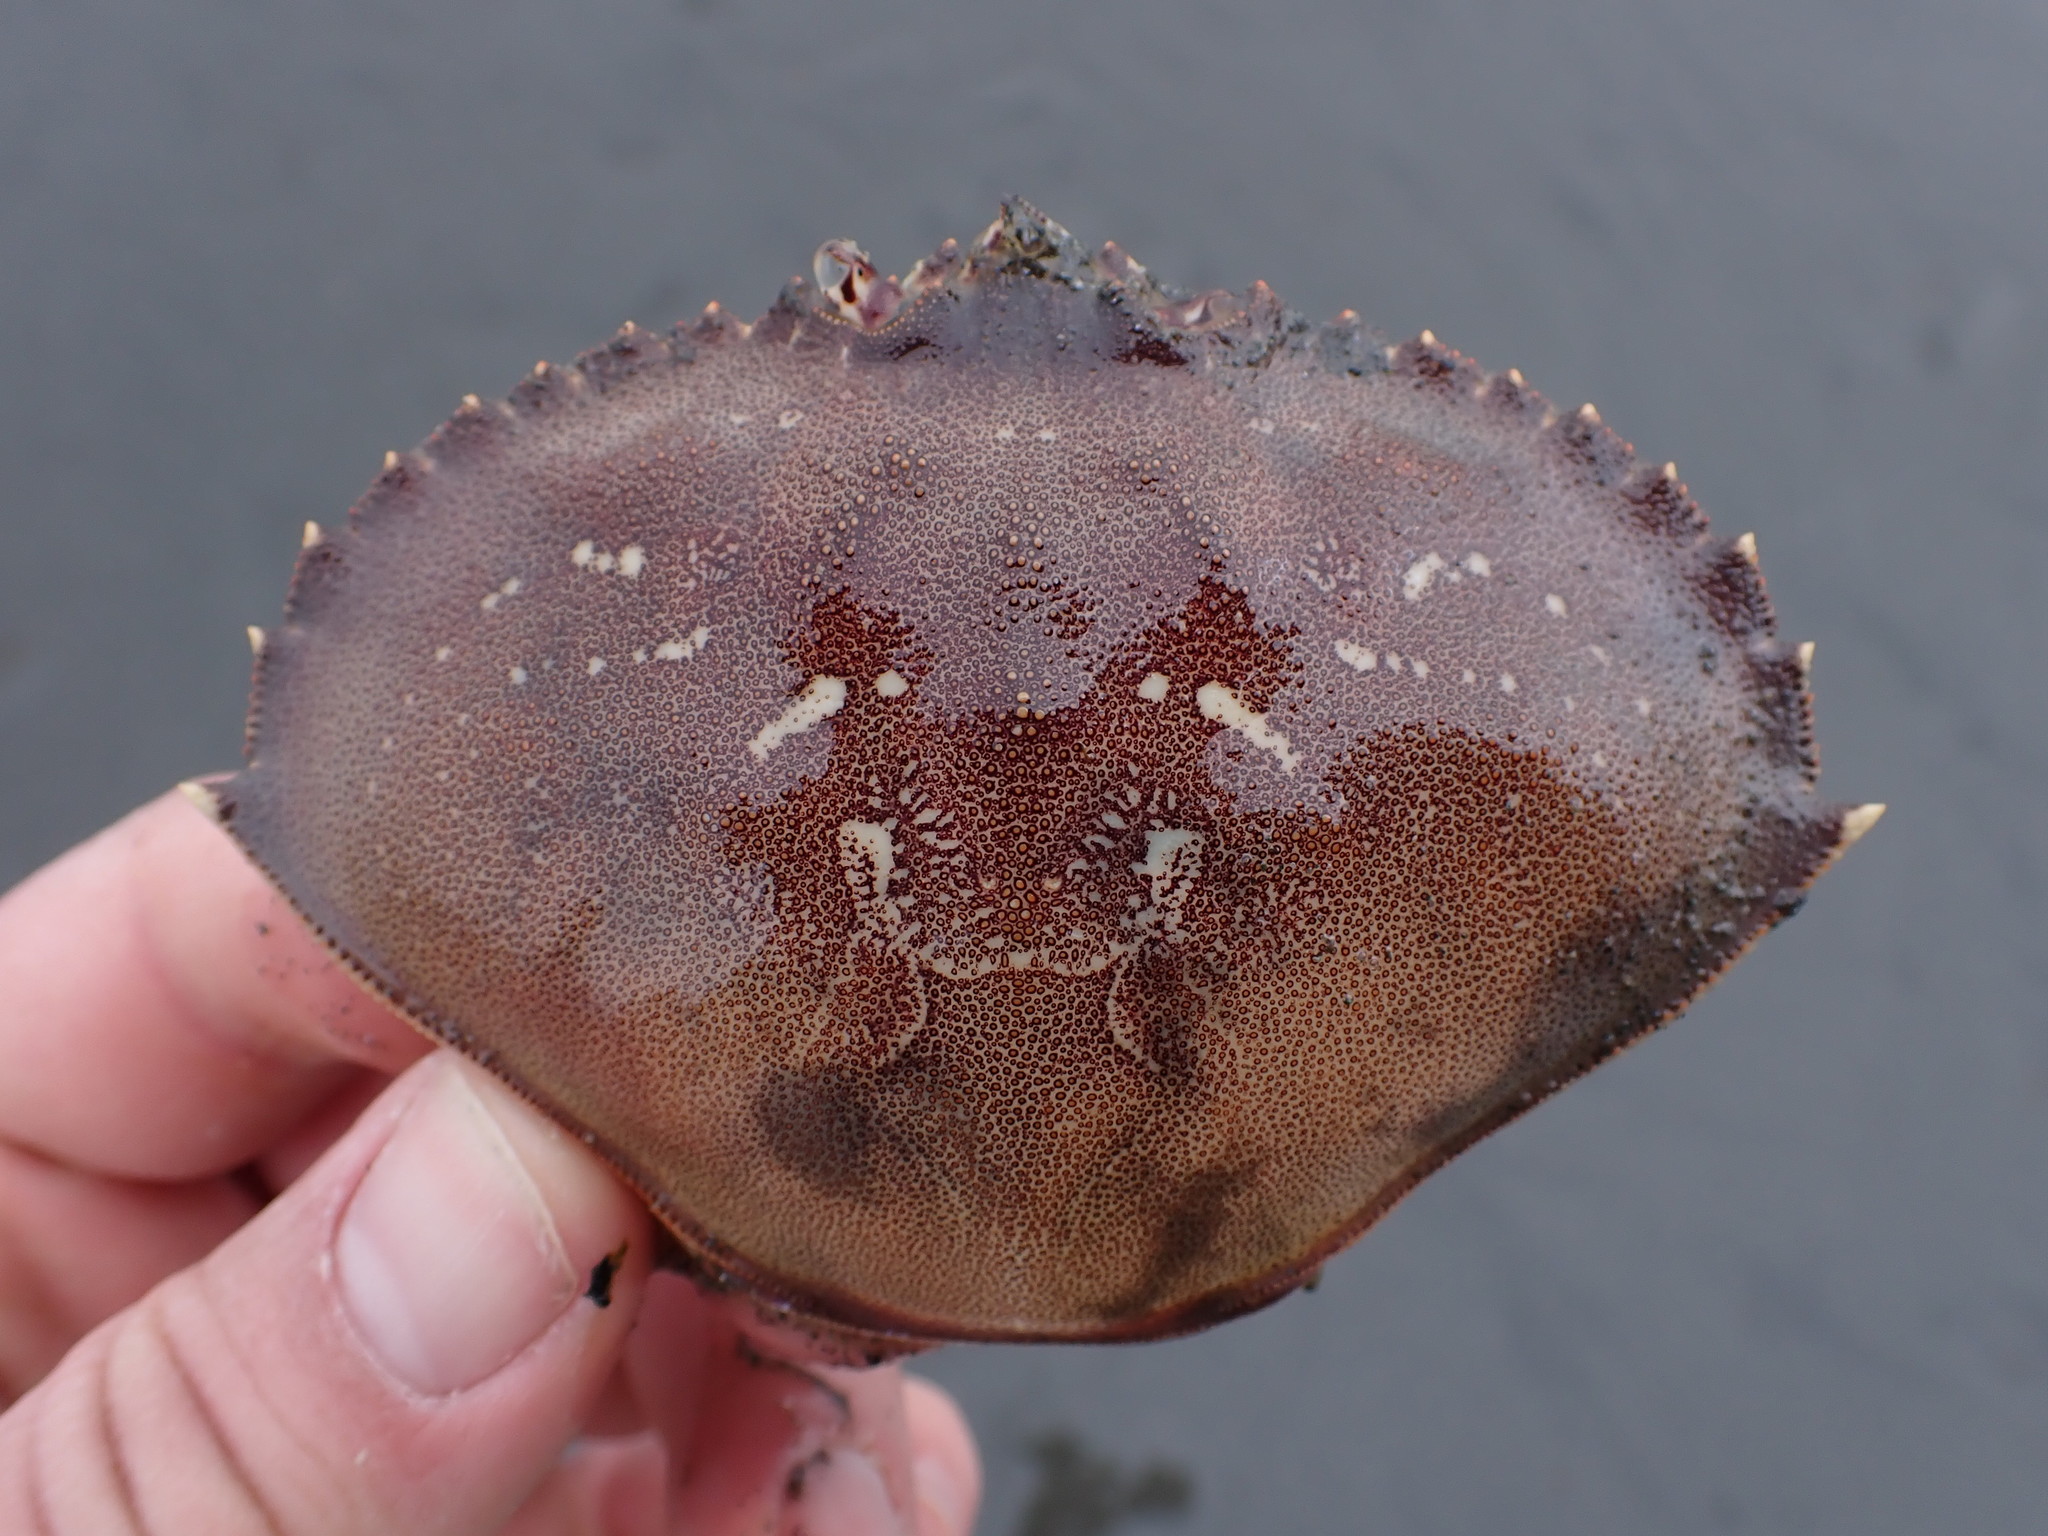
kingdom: Animalia
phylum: Arthropoda
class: Malacostraca
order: Decapoda
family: Cancridae
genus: Metacarcinus
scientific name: Metacarcinus magister
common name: Californian crab
